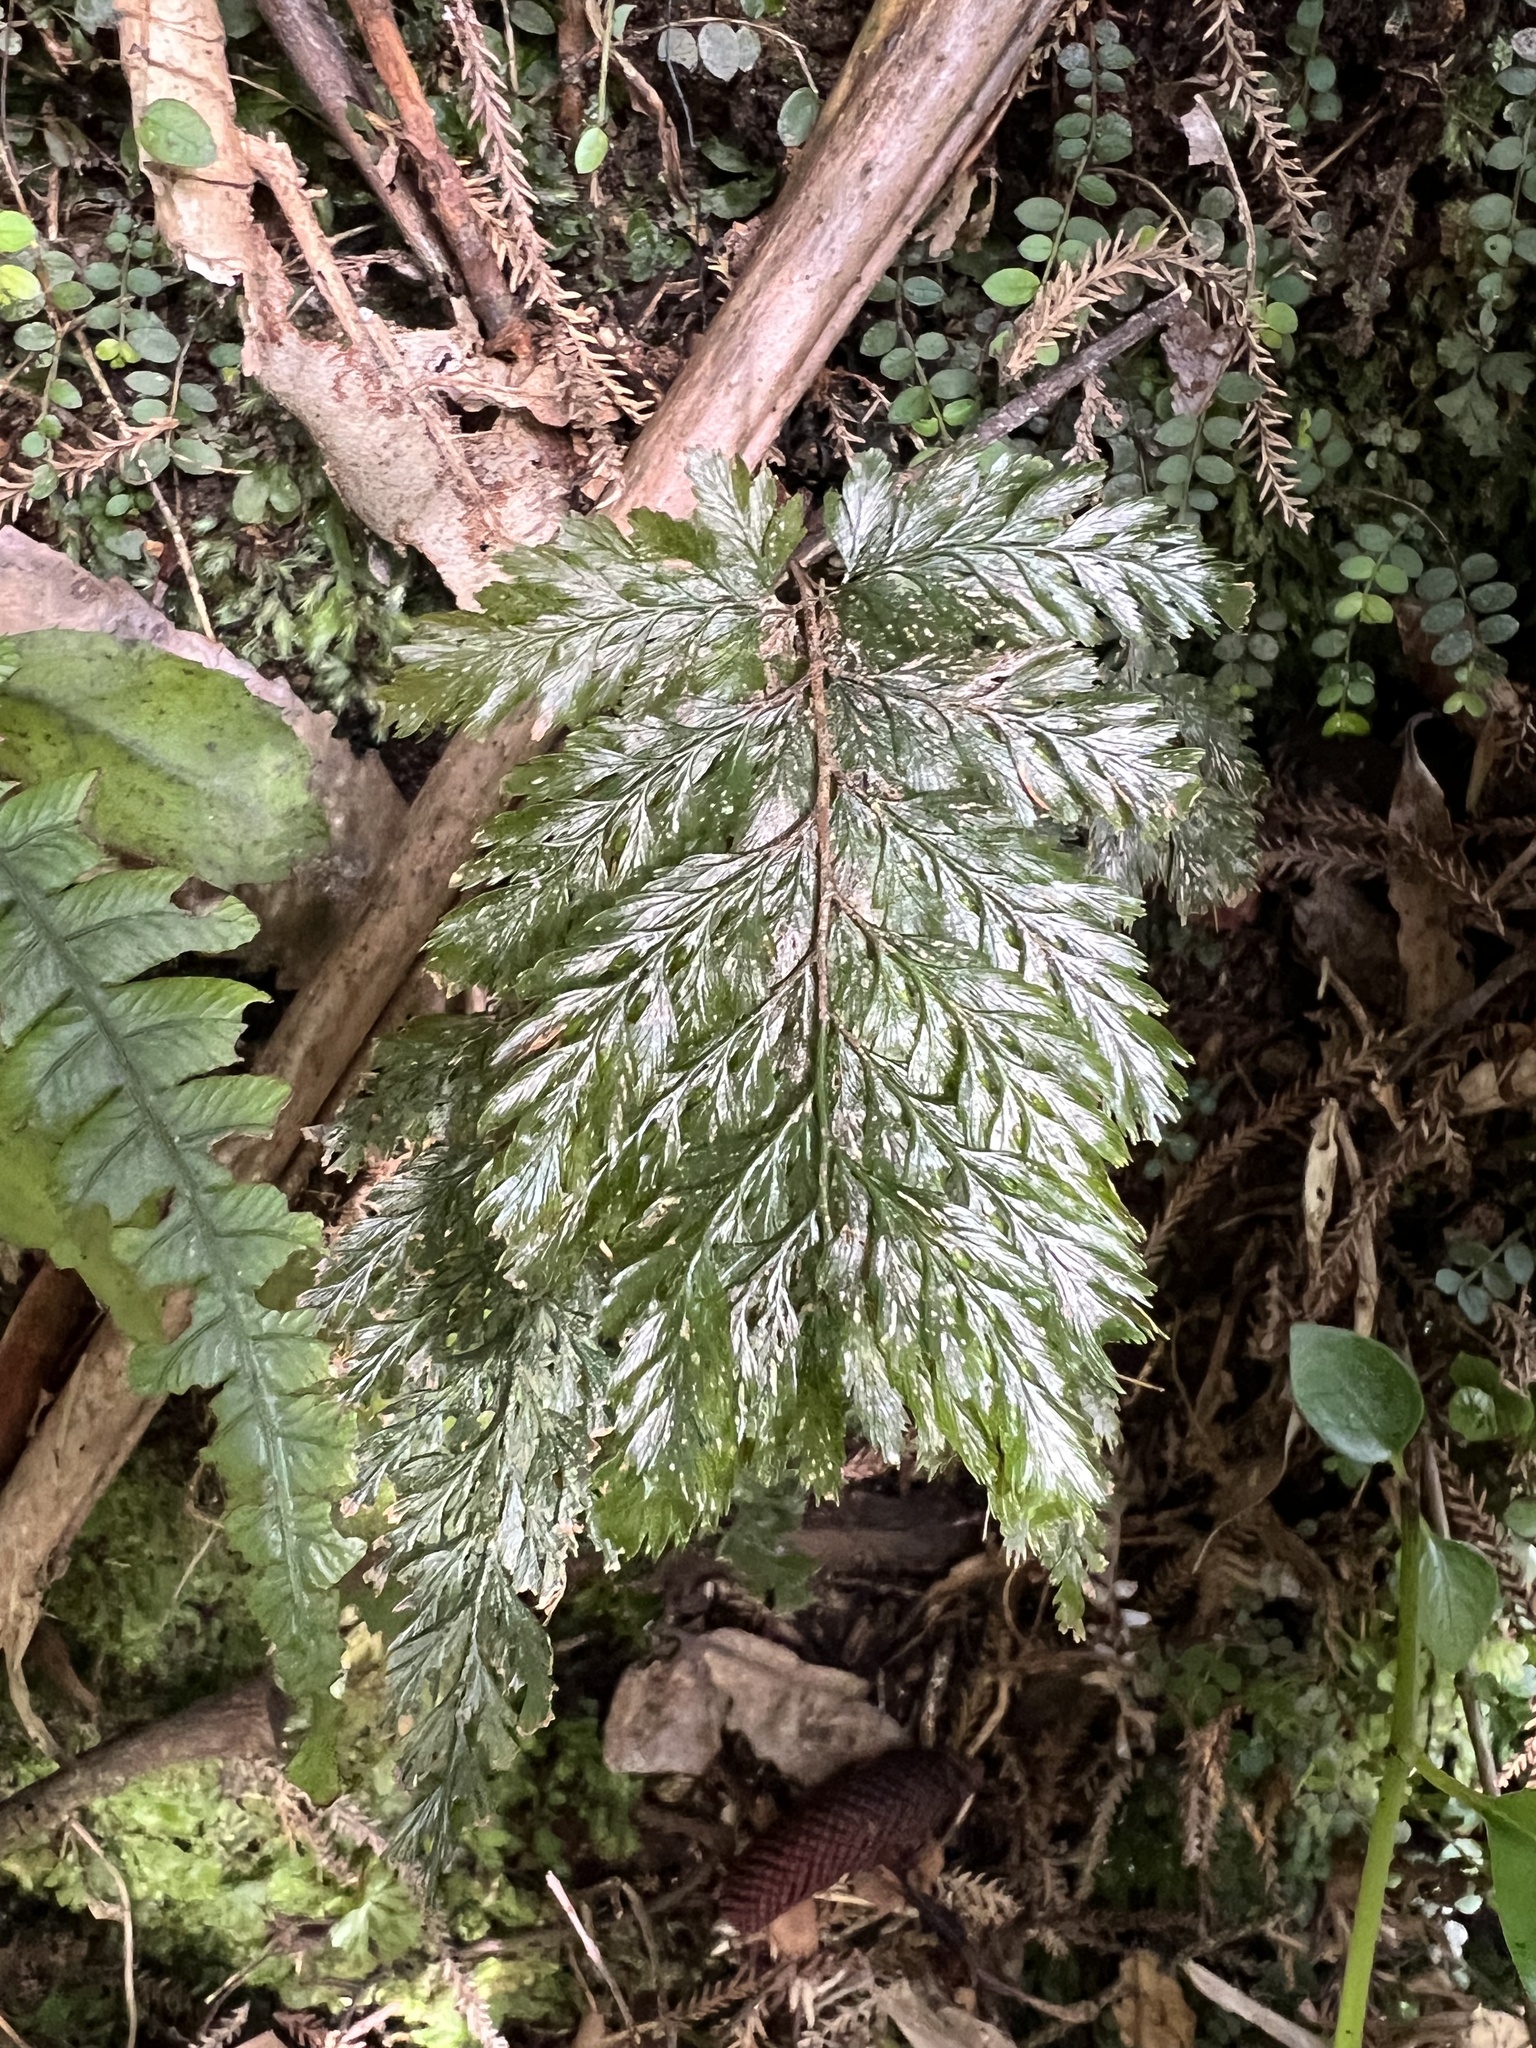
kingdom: Plantae
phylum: Tracheophyta
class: Polypodiopsida
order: Hymenophyllales
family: Hymenophyllaceae
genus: Abrodictyum
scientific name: Abrodictyum elongatum
